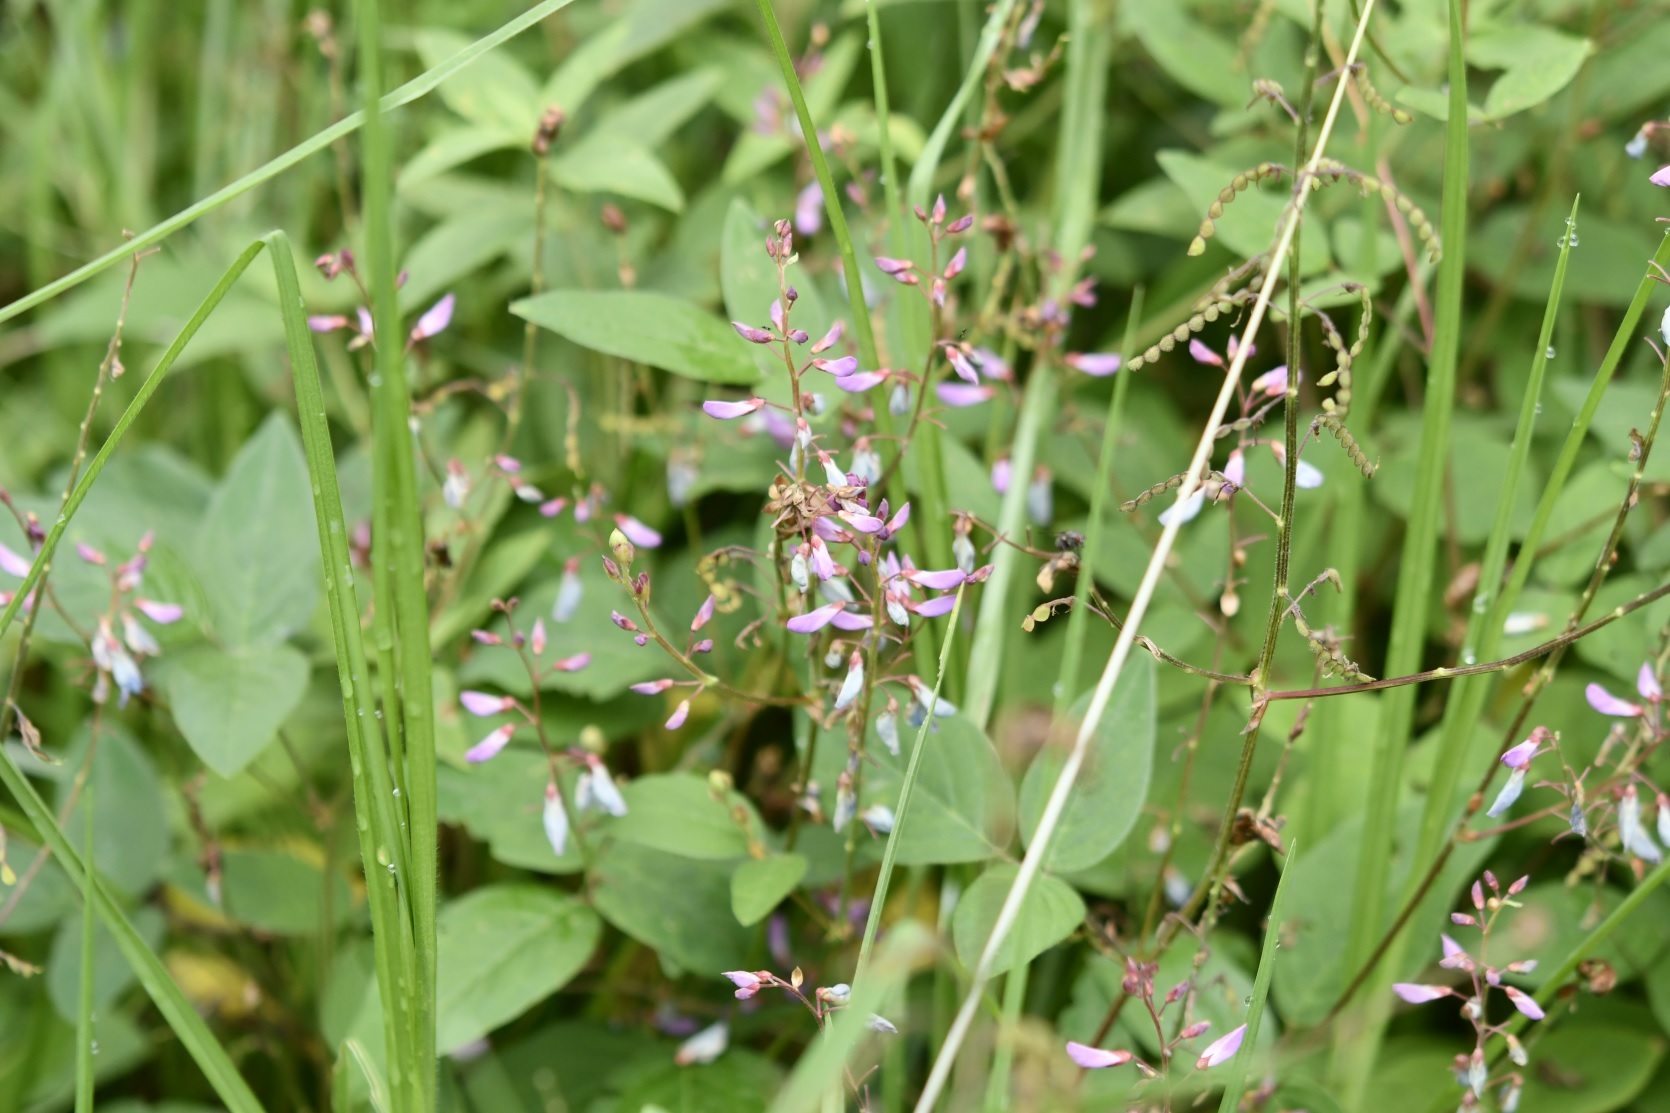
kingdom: Plantae
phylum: Tracheophyta
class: Magnoliopsida
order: Fabales
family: Fabaceae
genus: Desmodium
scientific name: Desmodium pringlei
